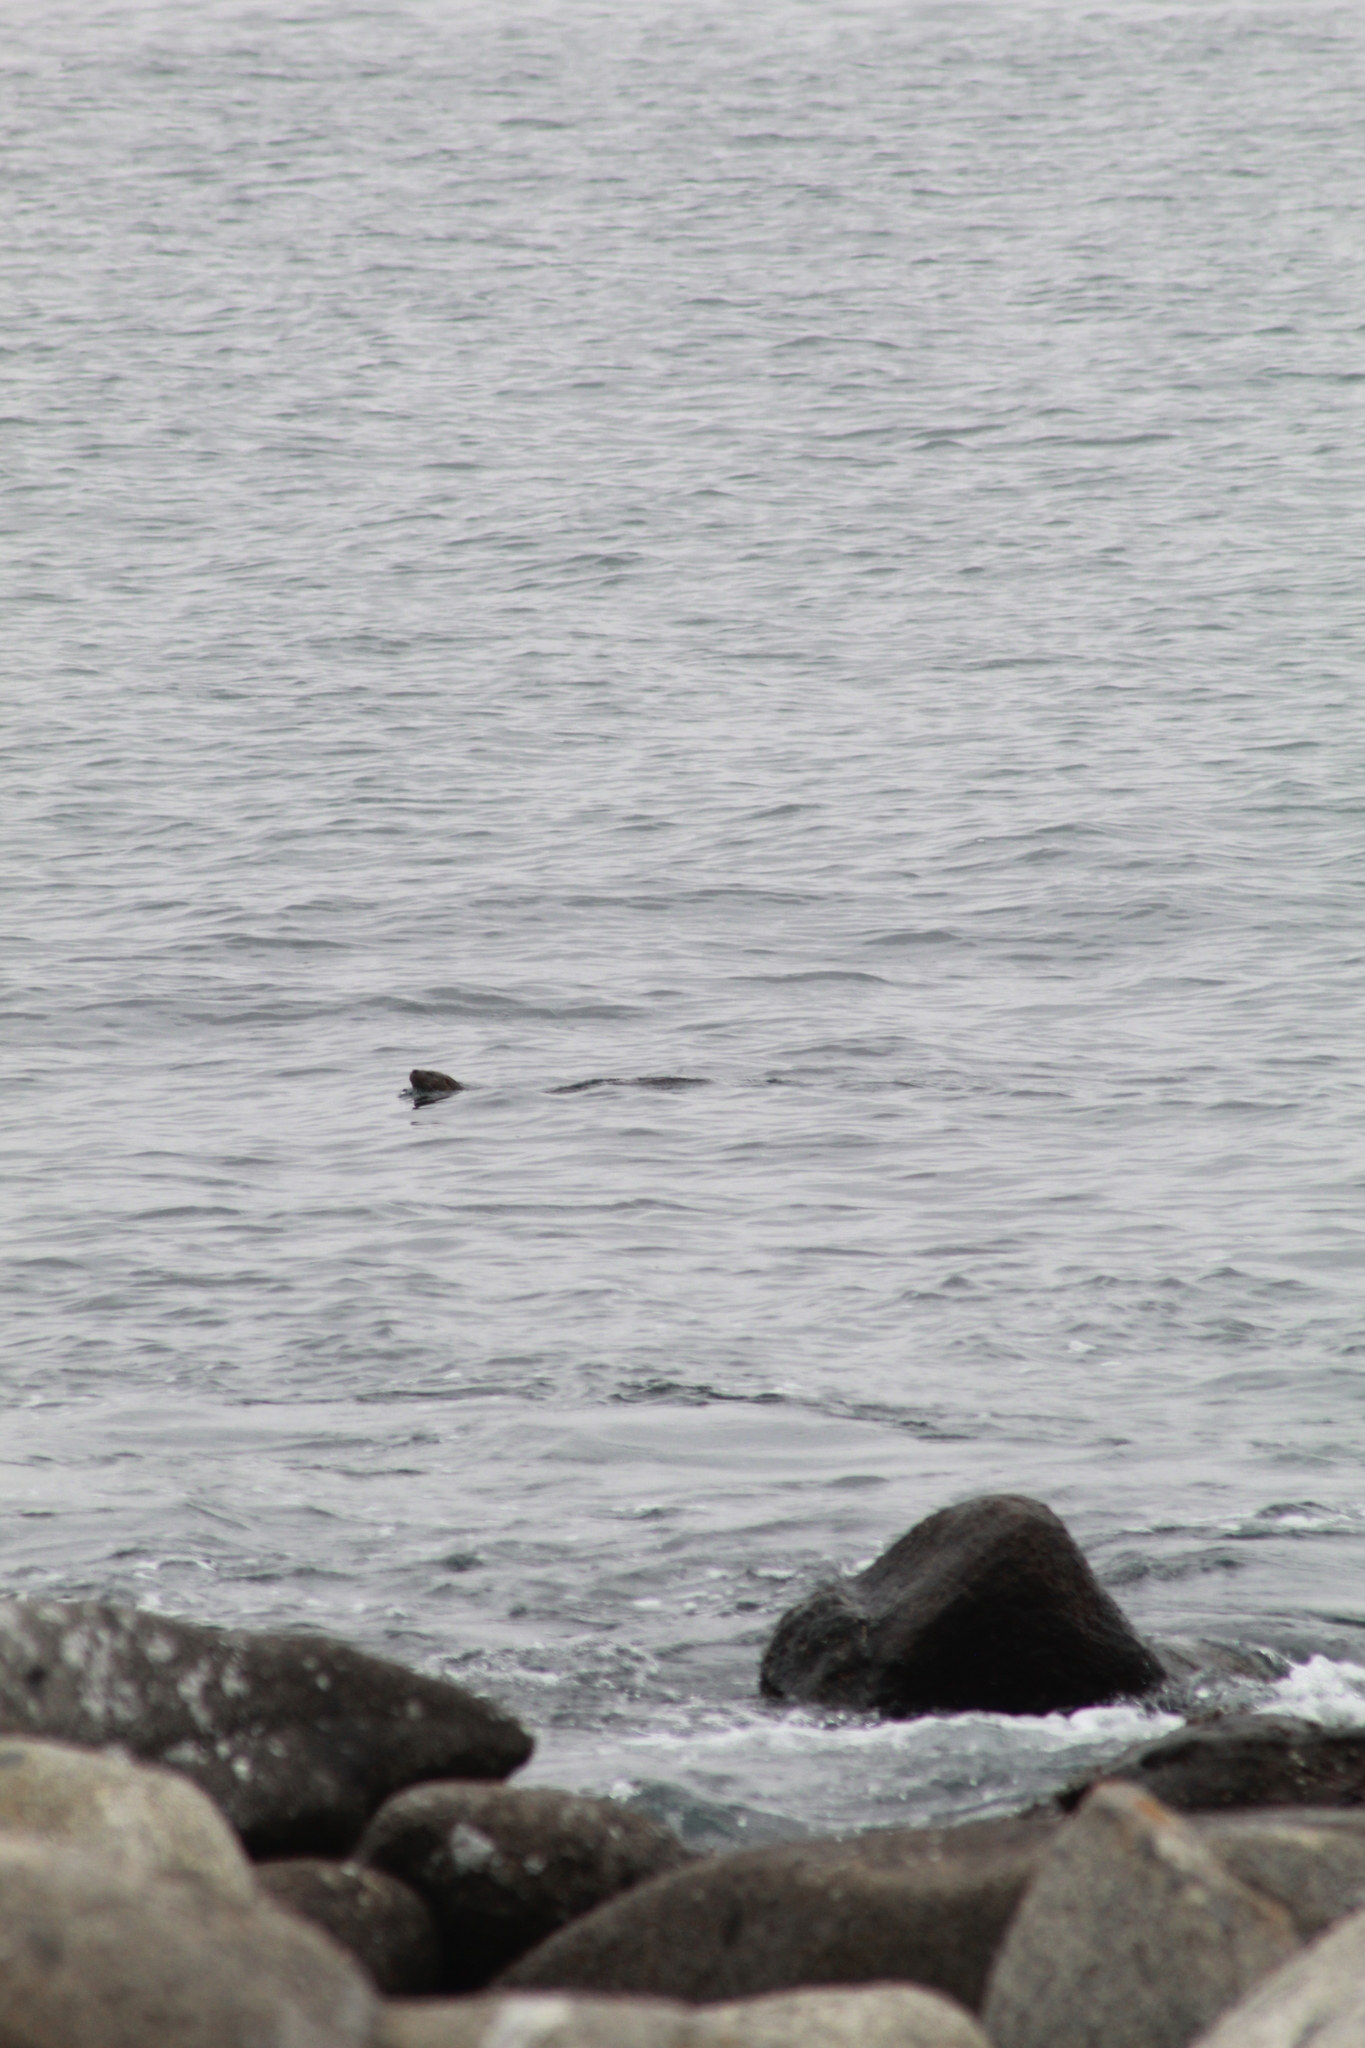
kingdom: Animalia
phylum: Chordata
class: Mammalia
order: Carnivora
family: Mustelidae
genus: Lontra
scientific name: Lontra felina
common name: Marine otter
